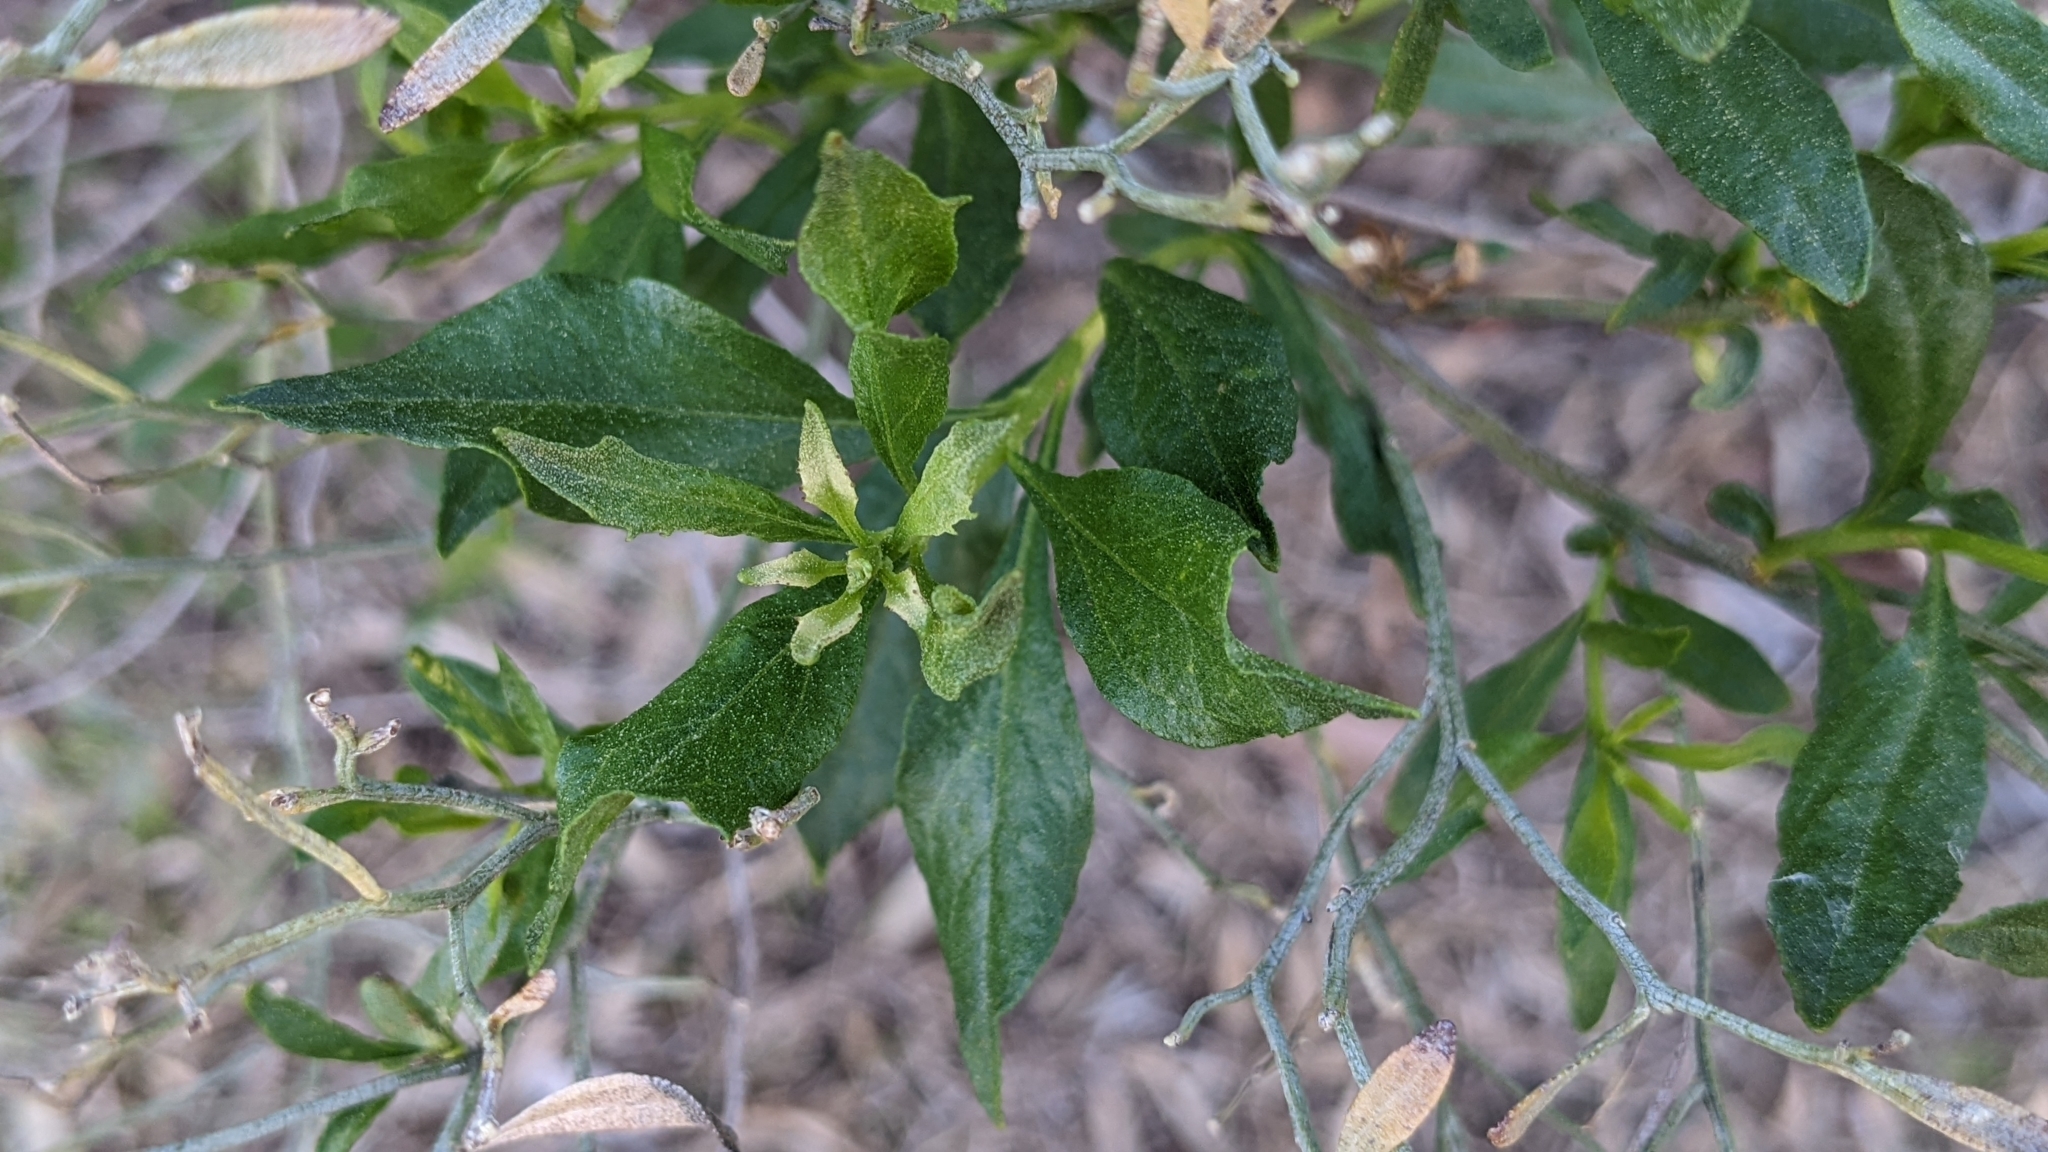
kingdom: Plantae
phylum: Tracheophyta
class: Magnoliopsida
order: Asterales
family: Asteraceae
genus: Baccharis
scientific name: Baccharis halimifolia
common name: Eastern baccharis
